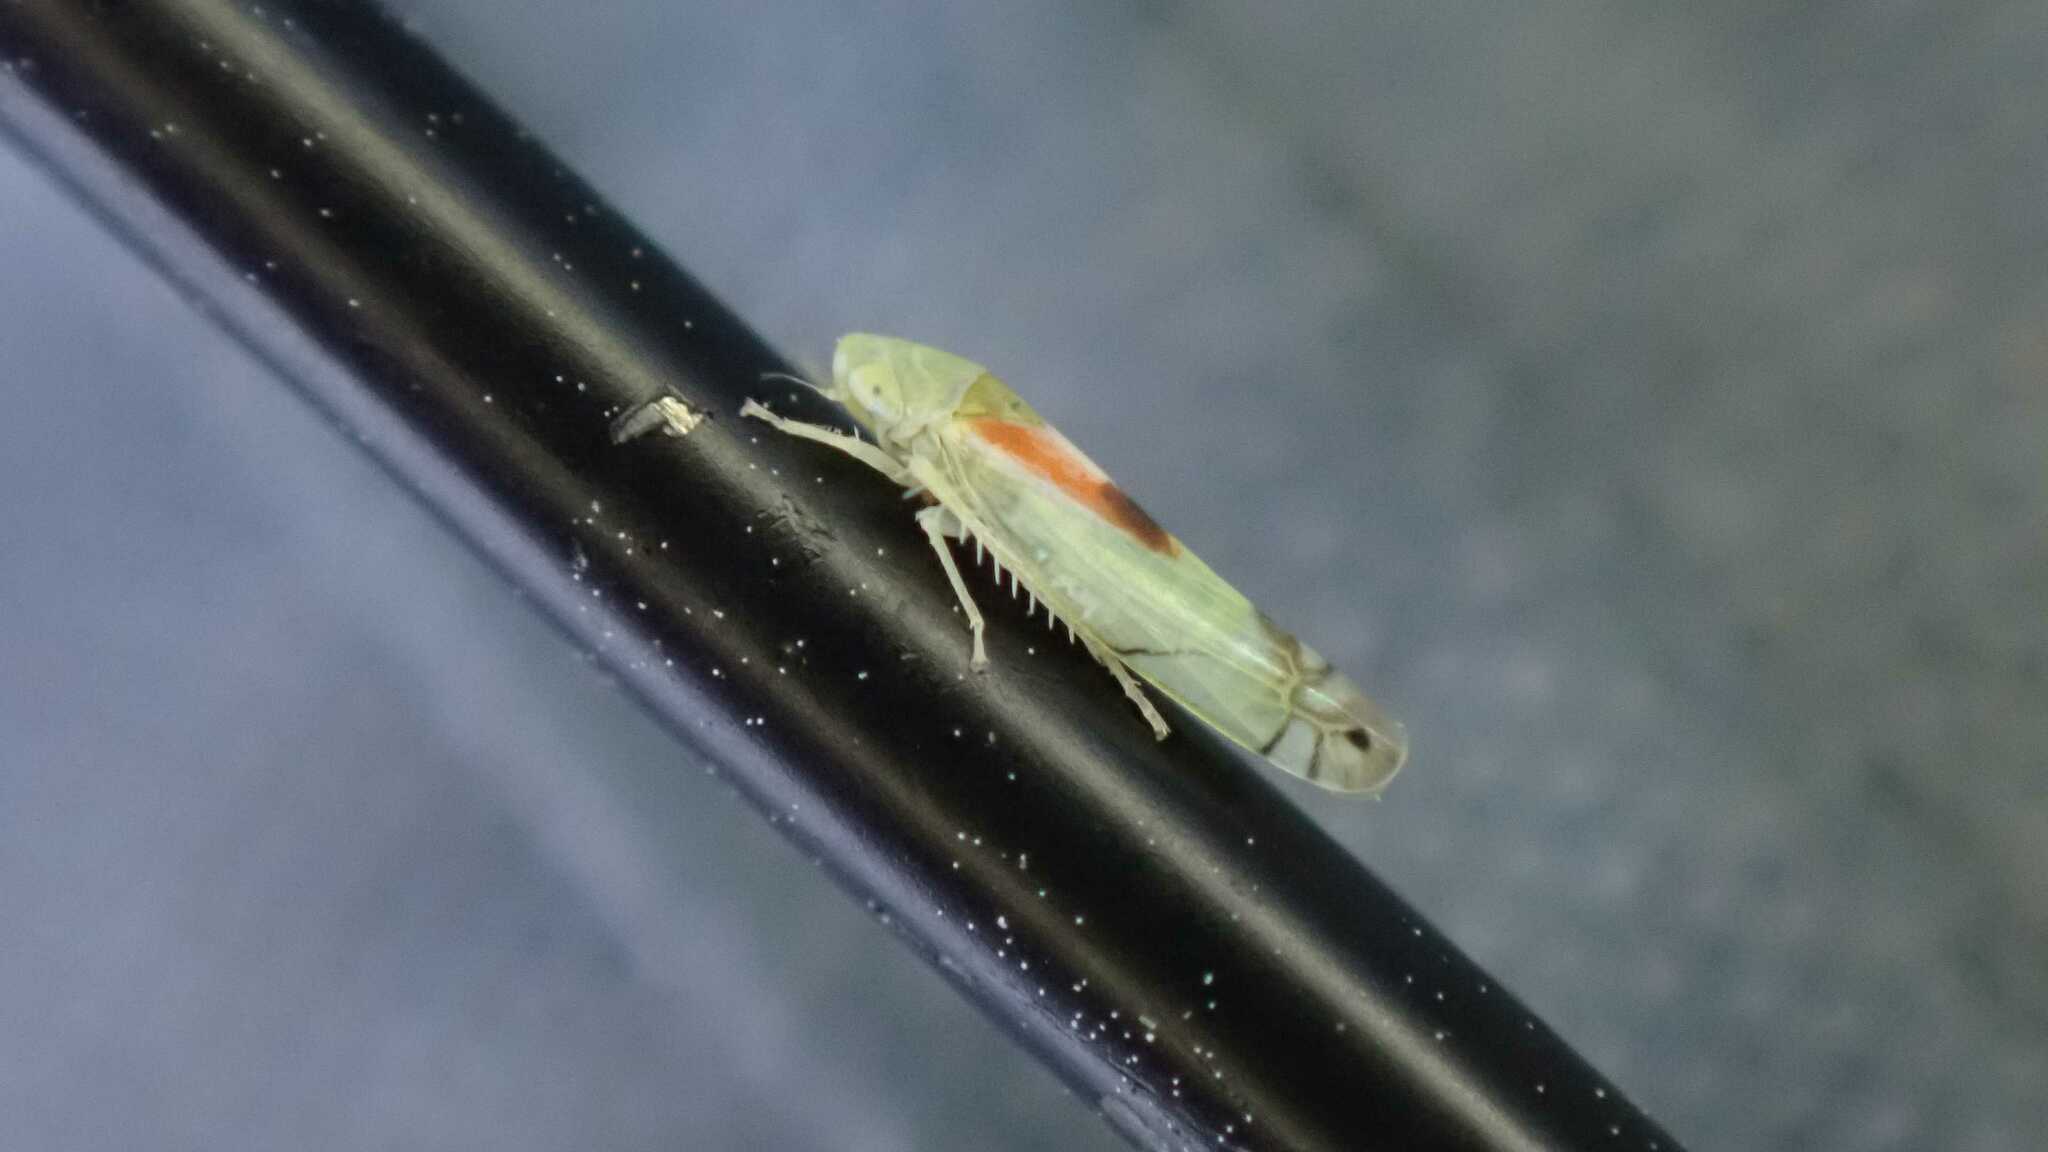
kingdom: Animalia
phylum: Arthropoda
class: Insecta
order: Hemiptera
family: Cicadellidae
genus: Zyginella
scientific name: Zyginella pulchra
